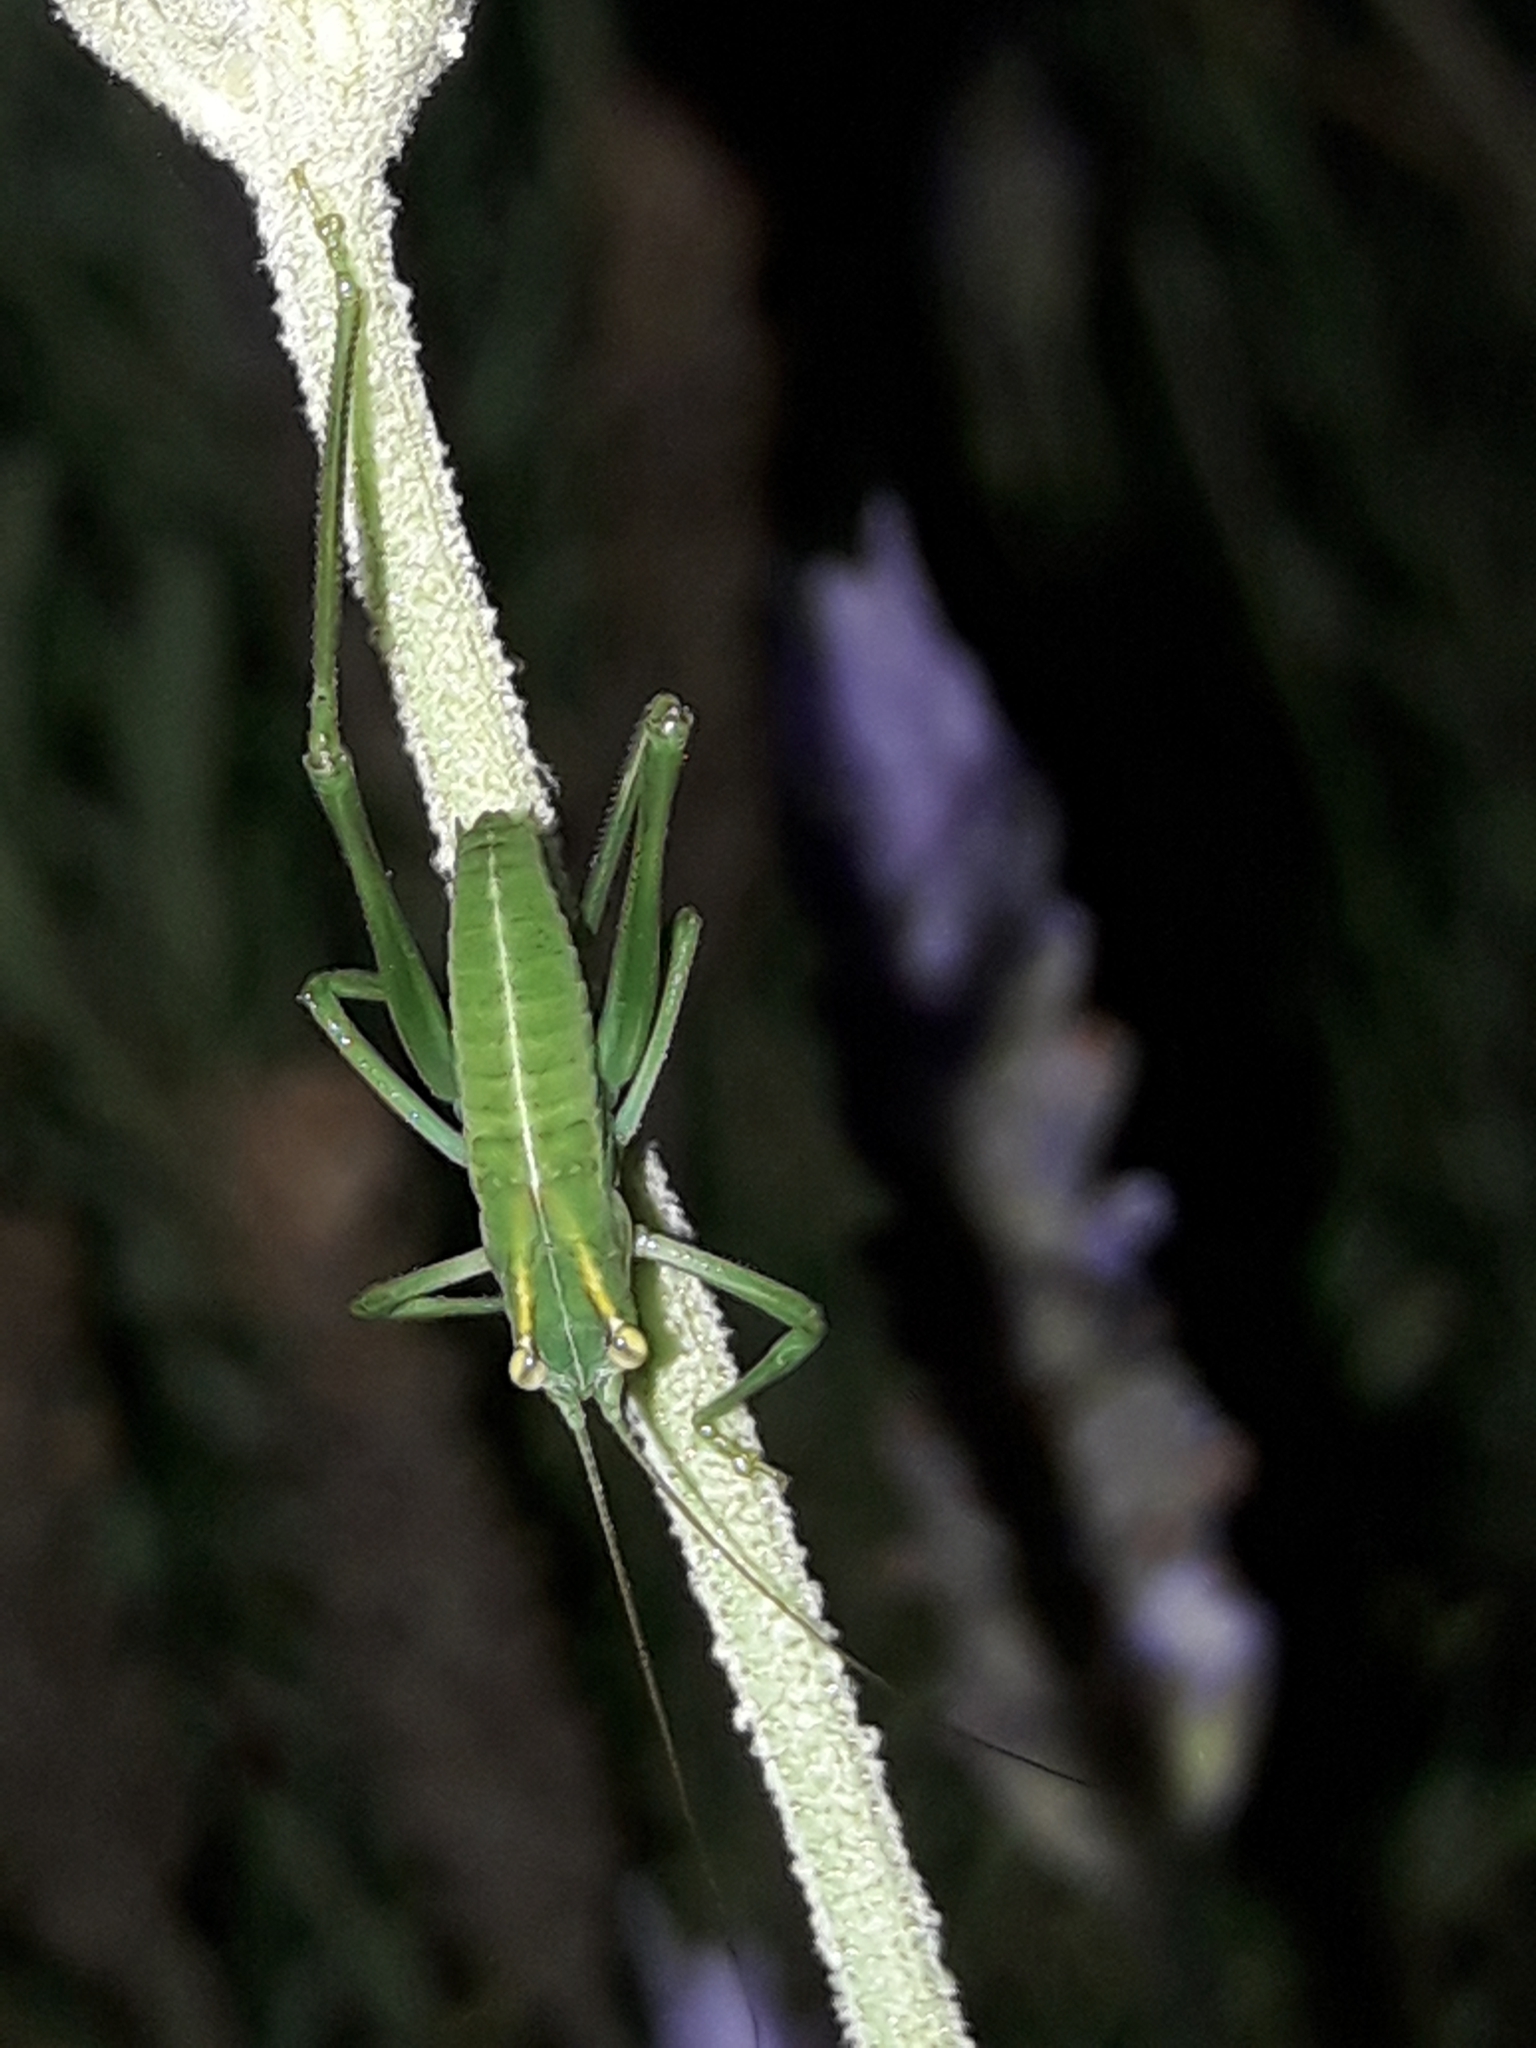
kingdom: Animalia
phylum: Arthropoda
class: Insecta
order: Orthoptera
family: Tettigoniidae
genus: Caedicia
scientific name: Caedicia simplex
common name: Common garden katydid
